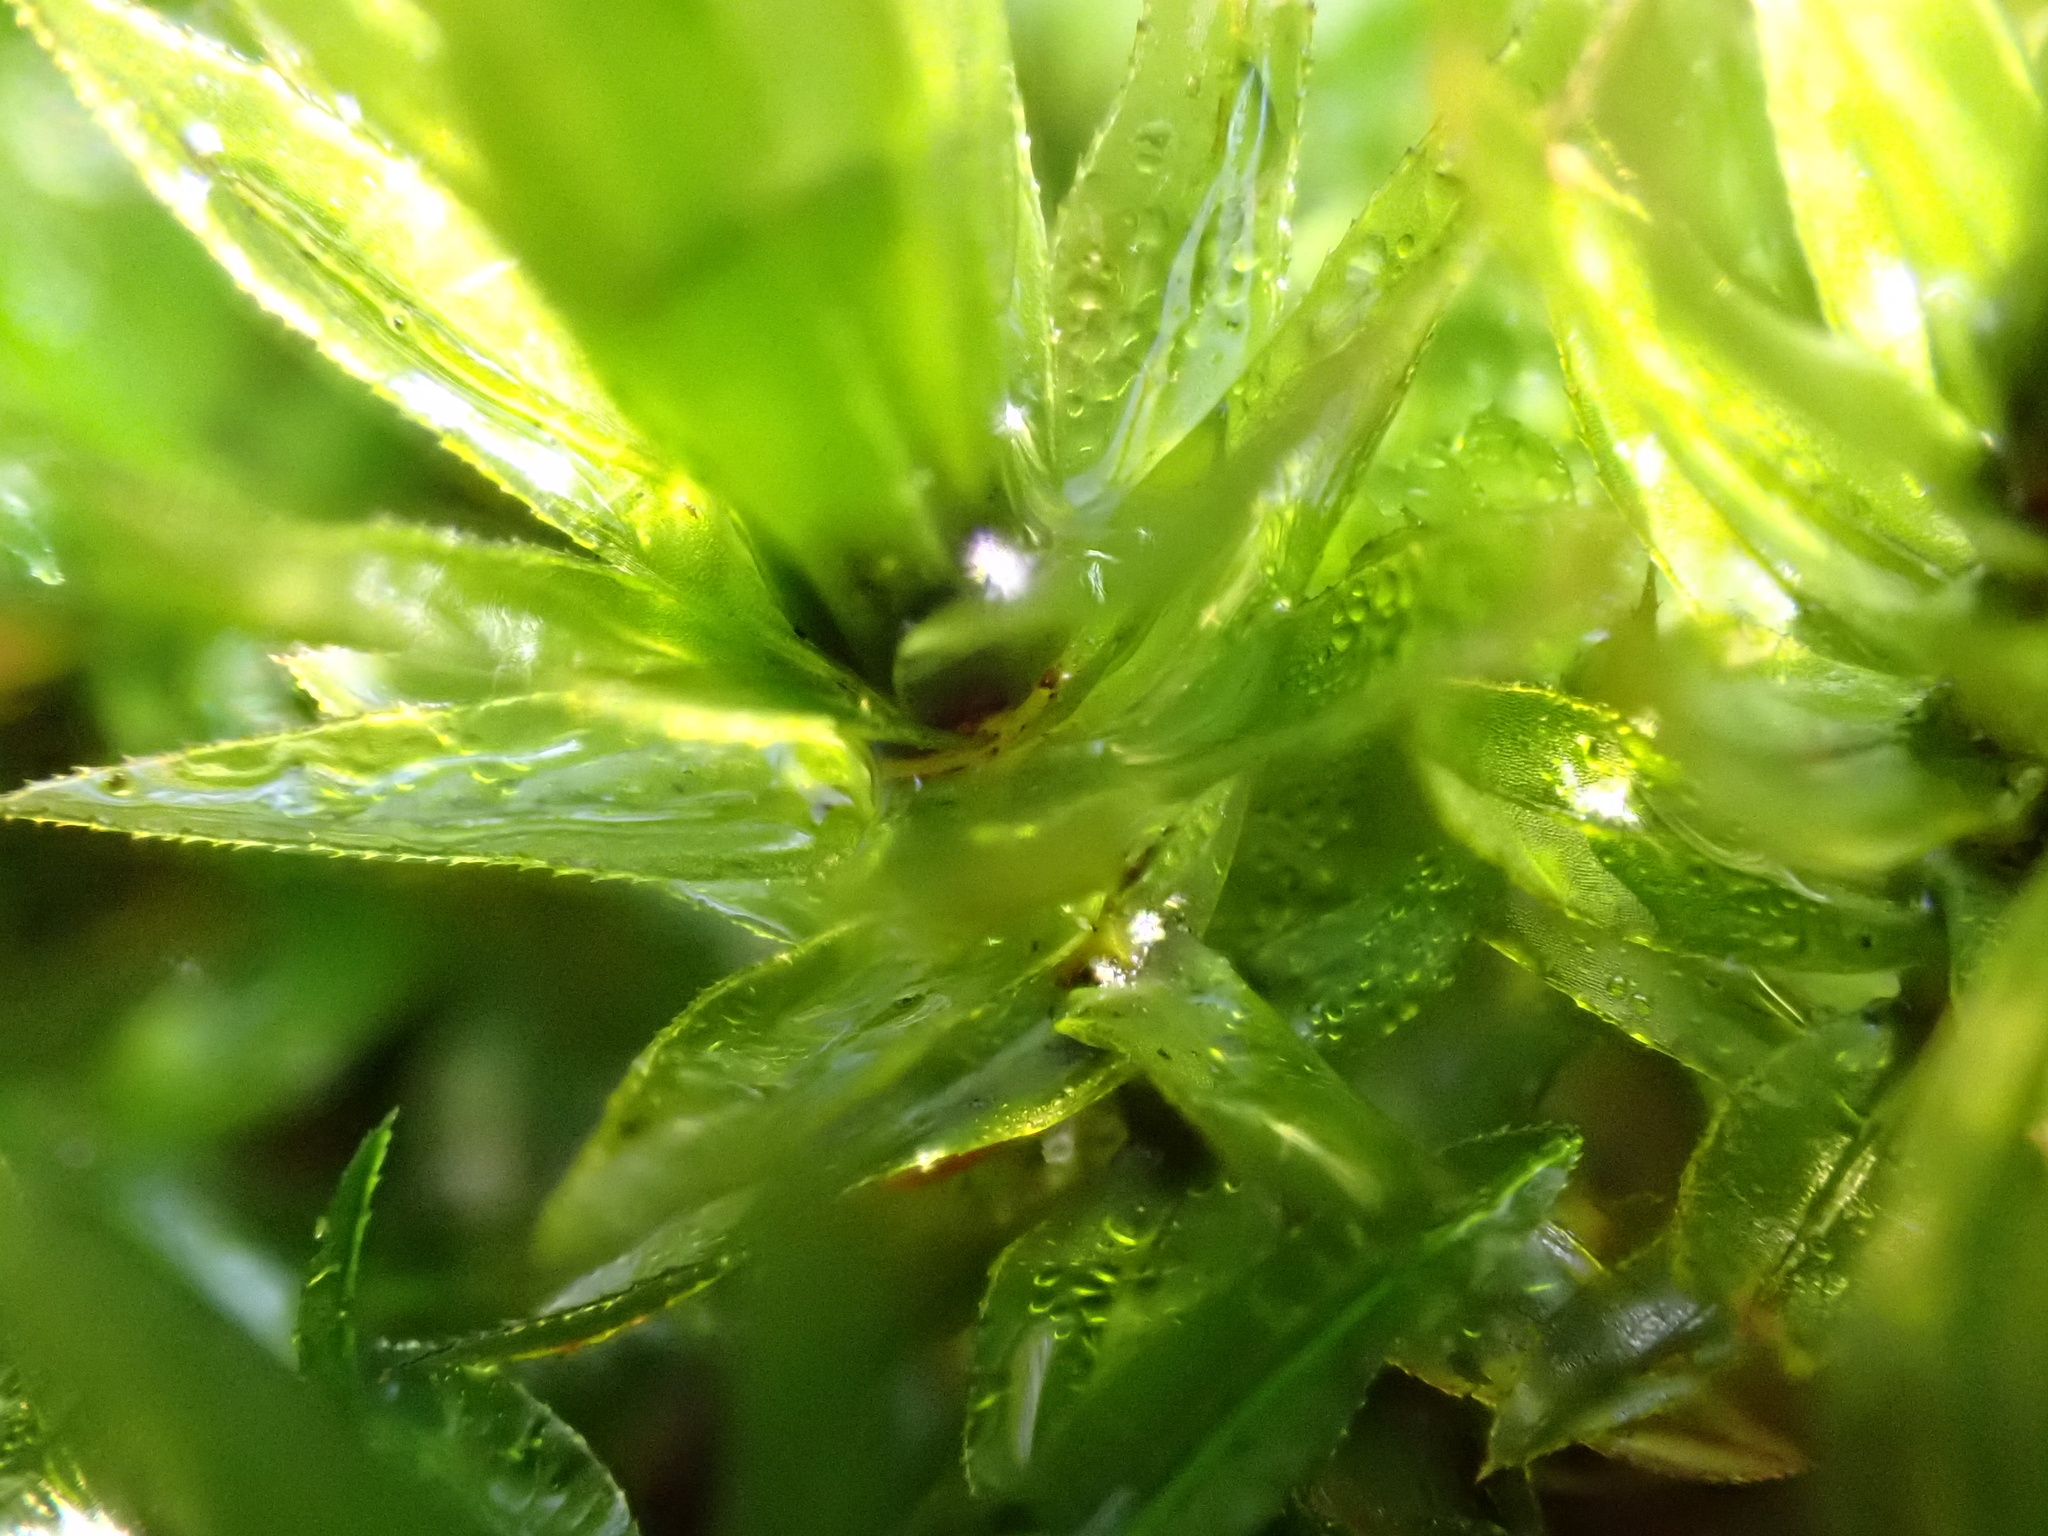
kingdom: Plantae
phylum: Bryophyta
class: Bryopsida
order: Bryales
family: Mniaceae
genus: Mnium
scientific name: Mnium hornum
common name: Swan's-neck leafy moss
